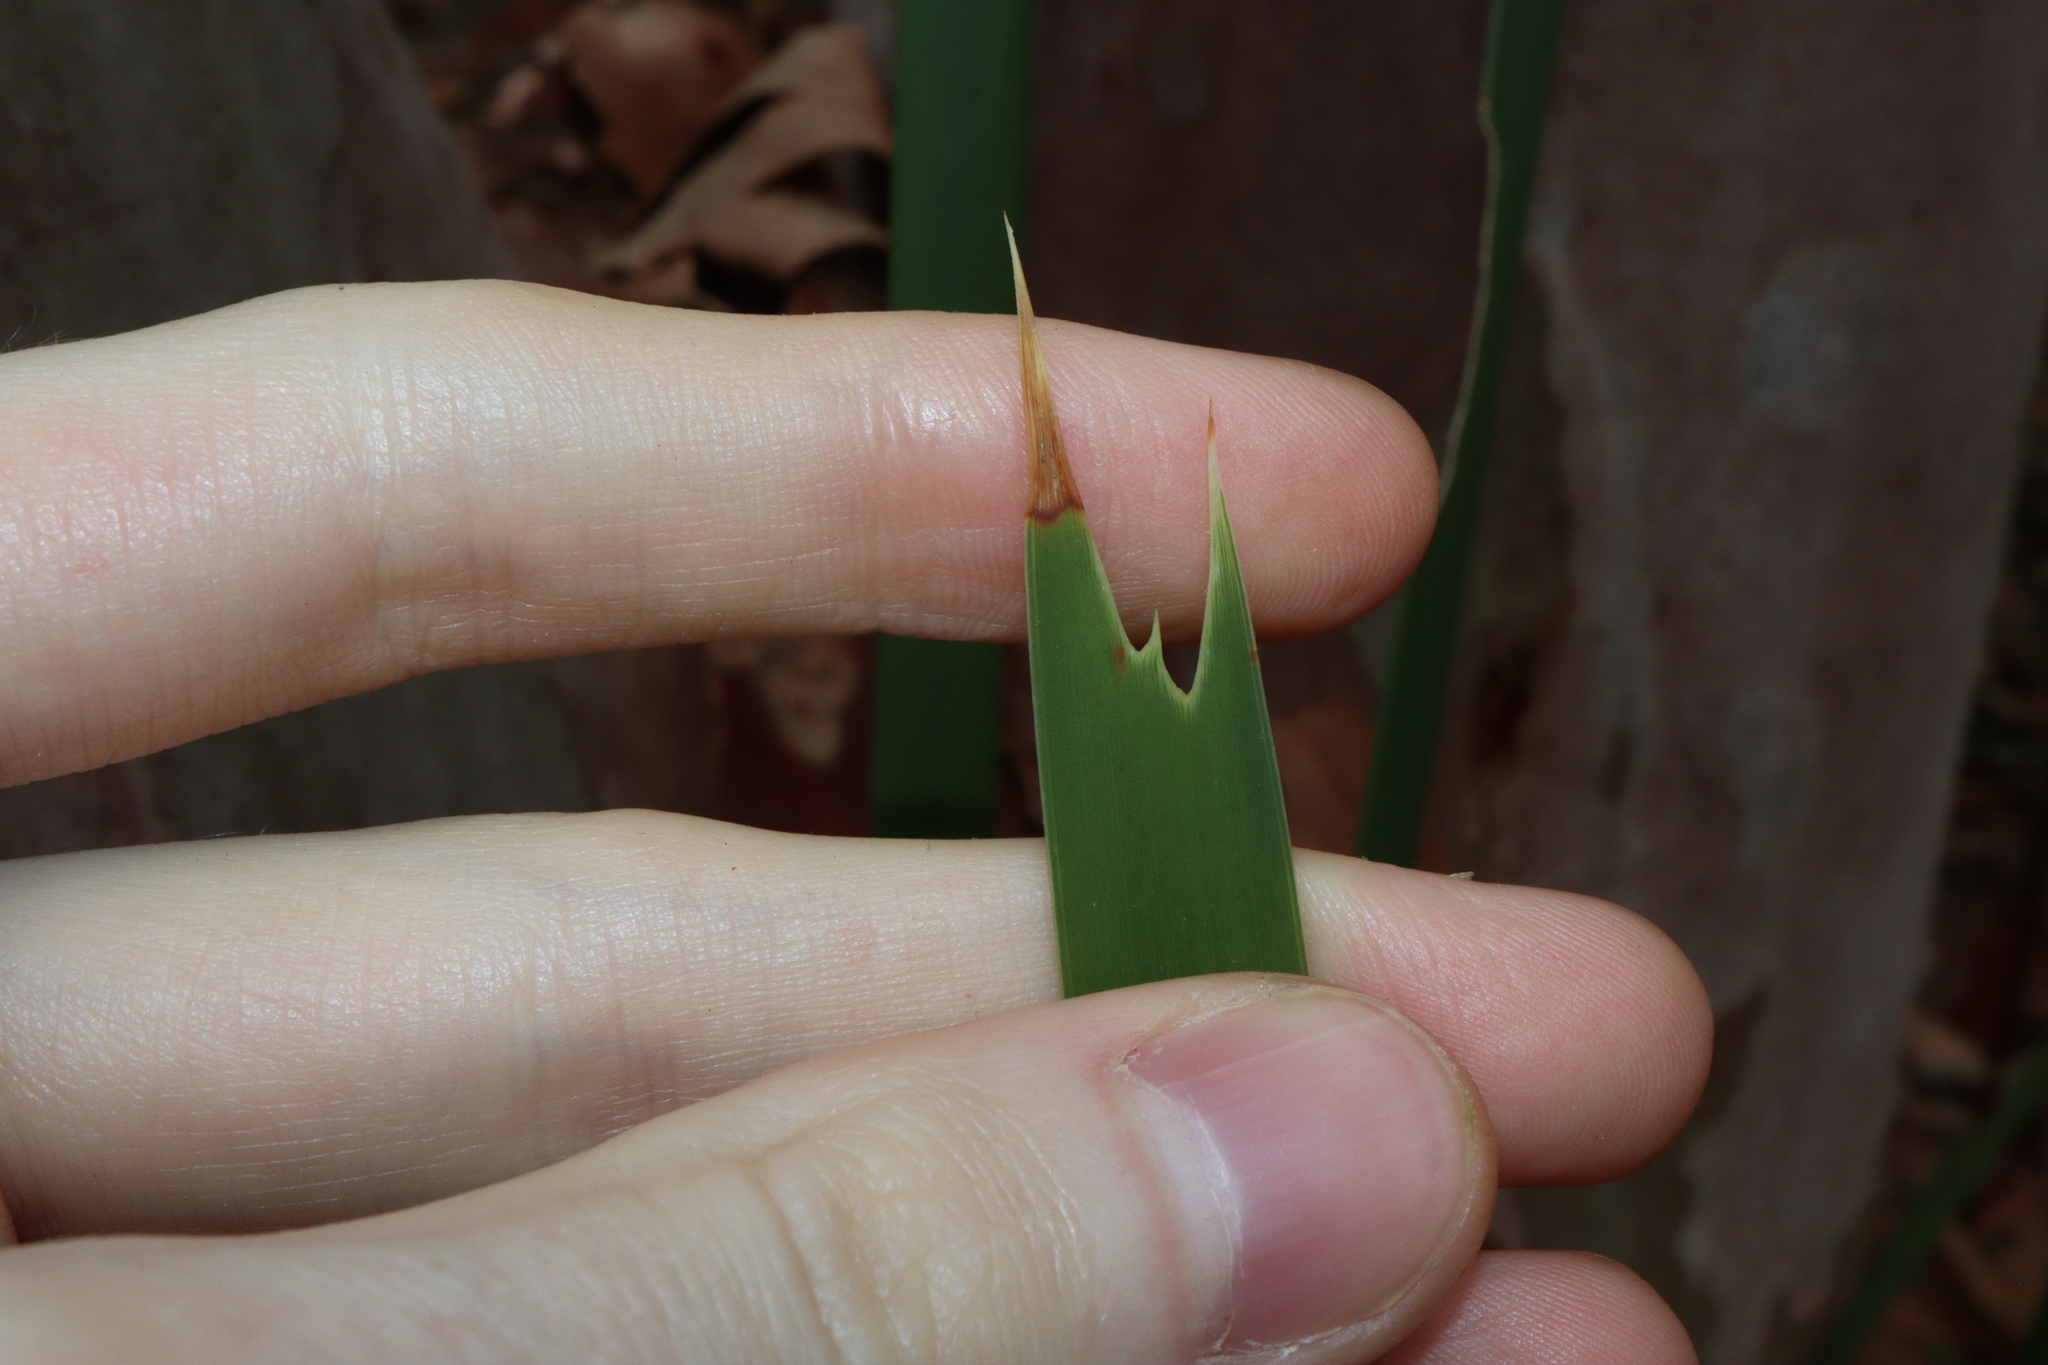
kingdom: Plantae
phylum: Tracheophyta
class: Liliopsida
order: Asparagales
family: Asparagaceae
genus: Lomandra
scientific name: Lomandra longifolia
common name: Longleaf mat-rush
